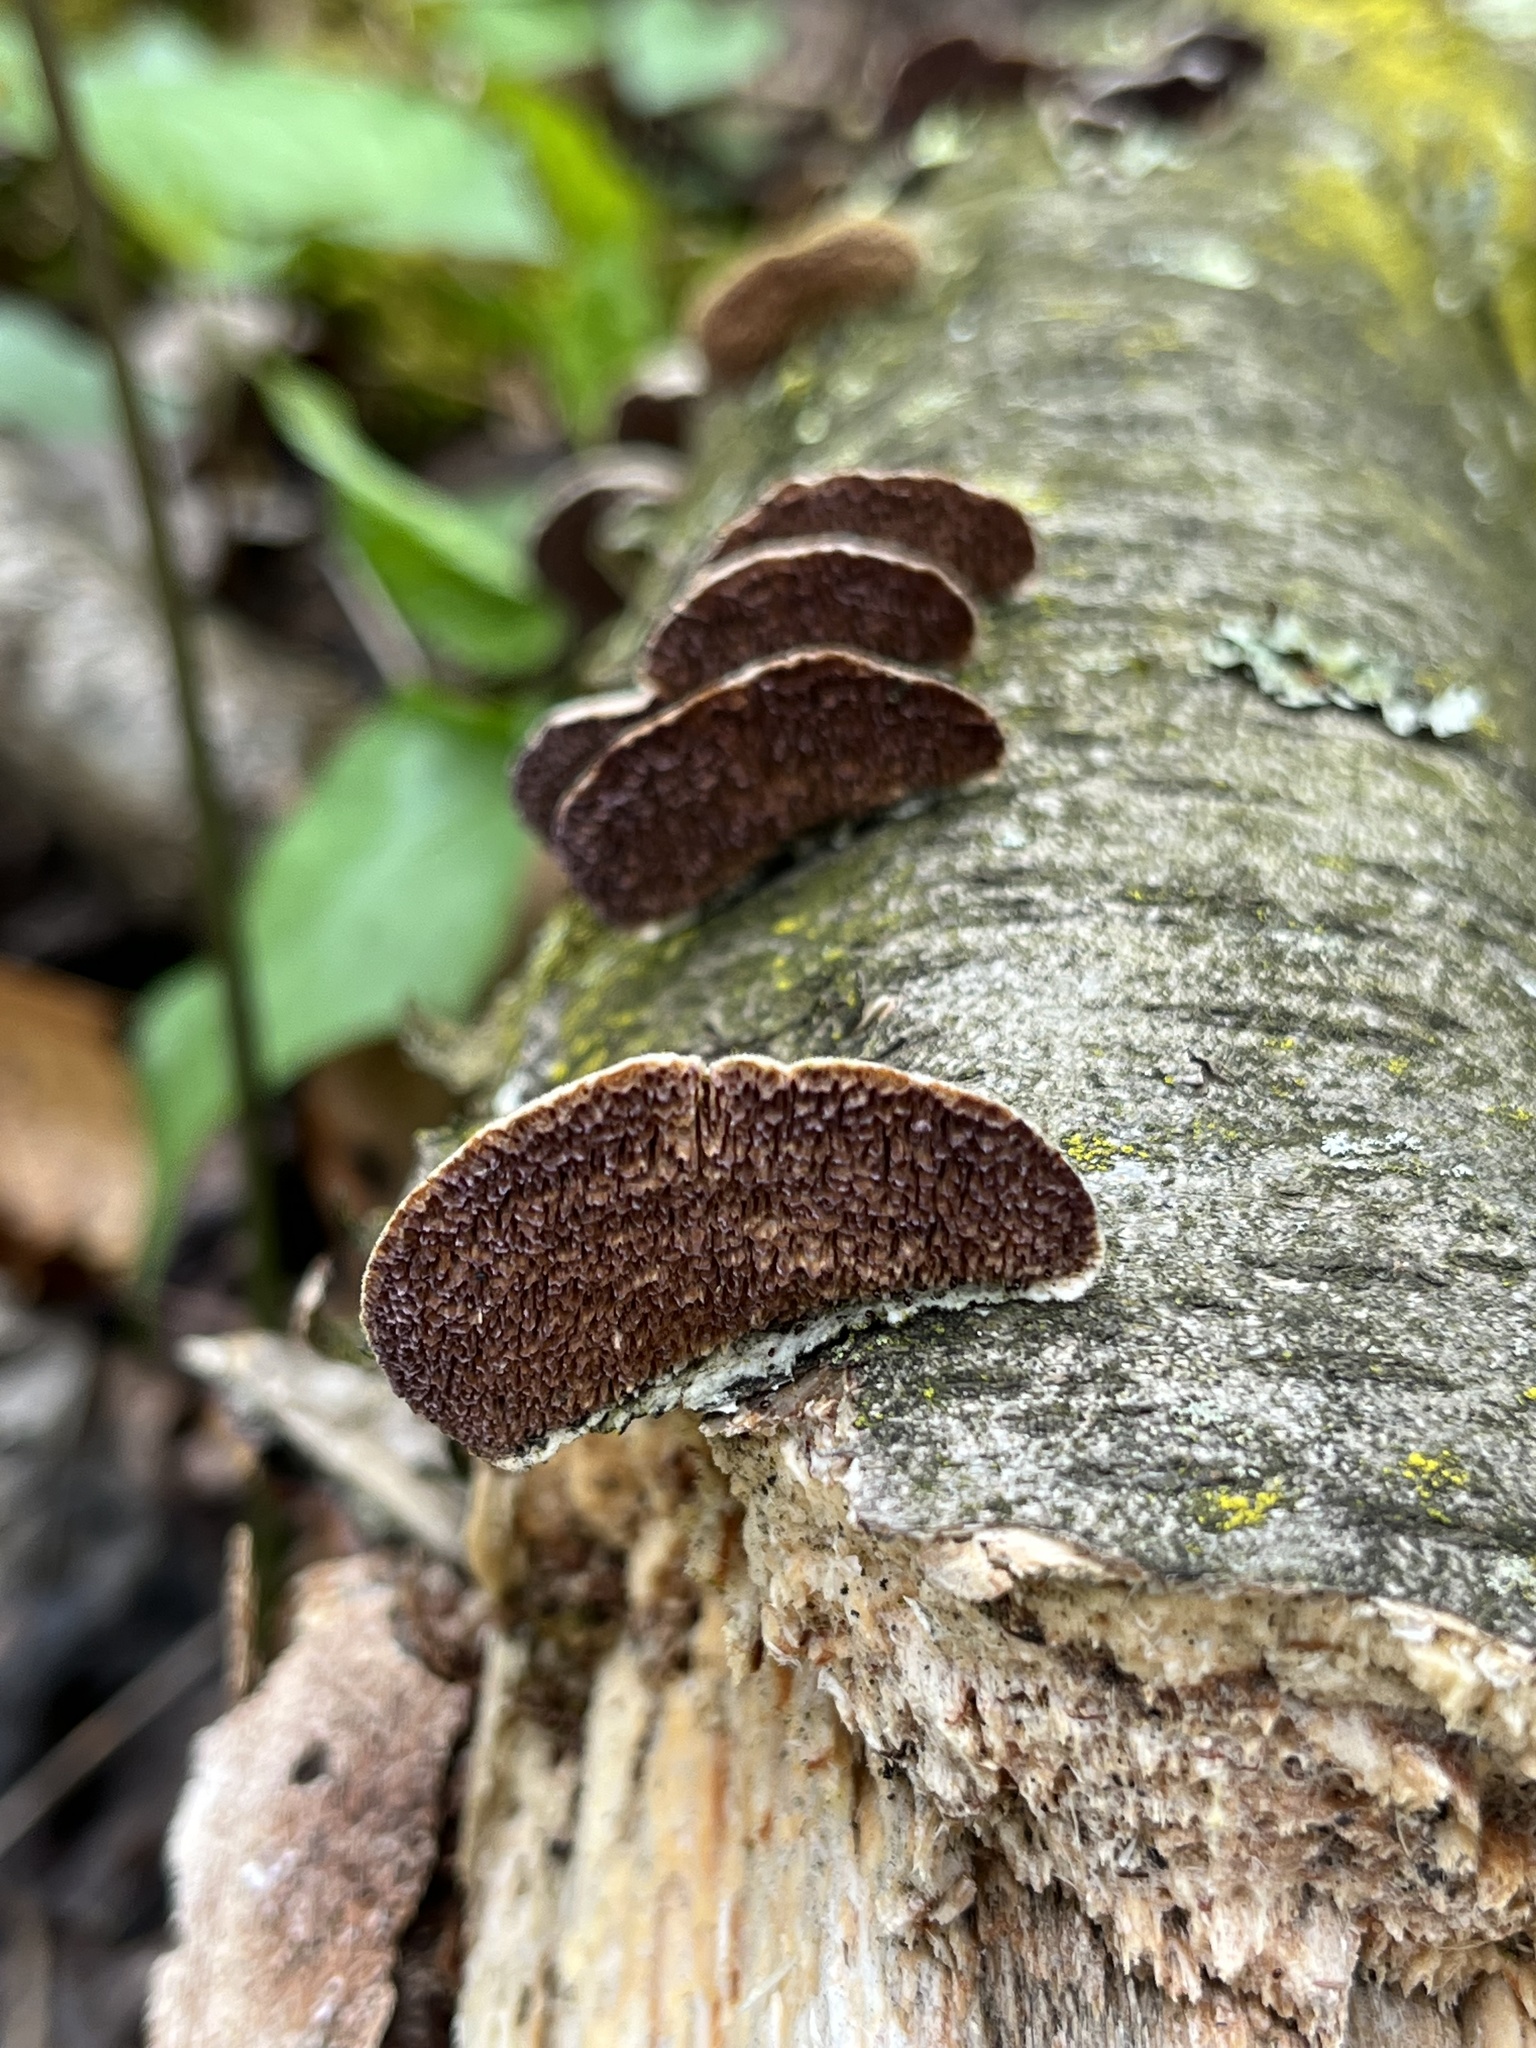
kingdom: Fungi
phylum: Basidiomycota
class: Agaricomycetes
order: Hymenochaetales
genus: Trichaptum
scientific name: Trichaptum biforme
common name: Violet-toothed polypore
